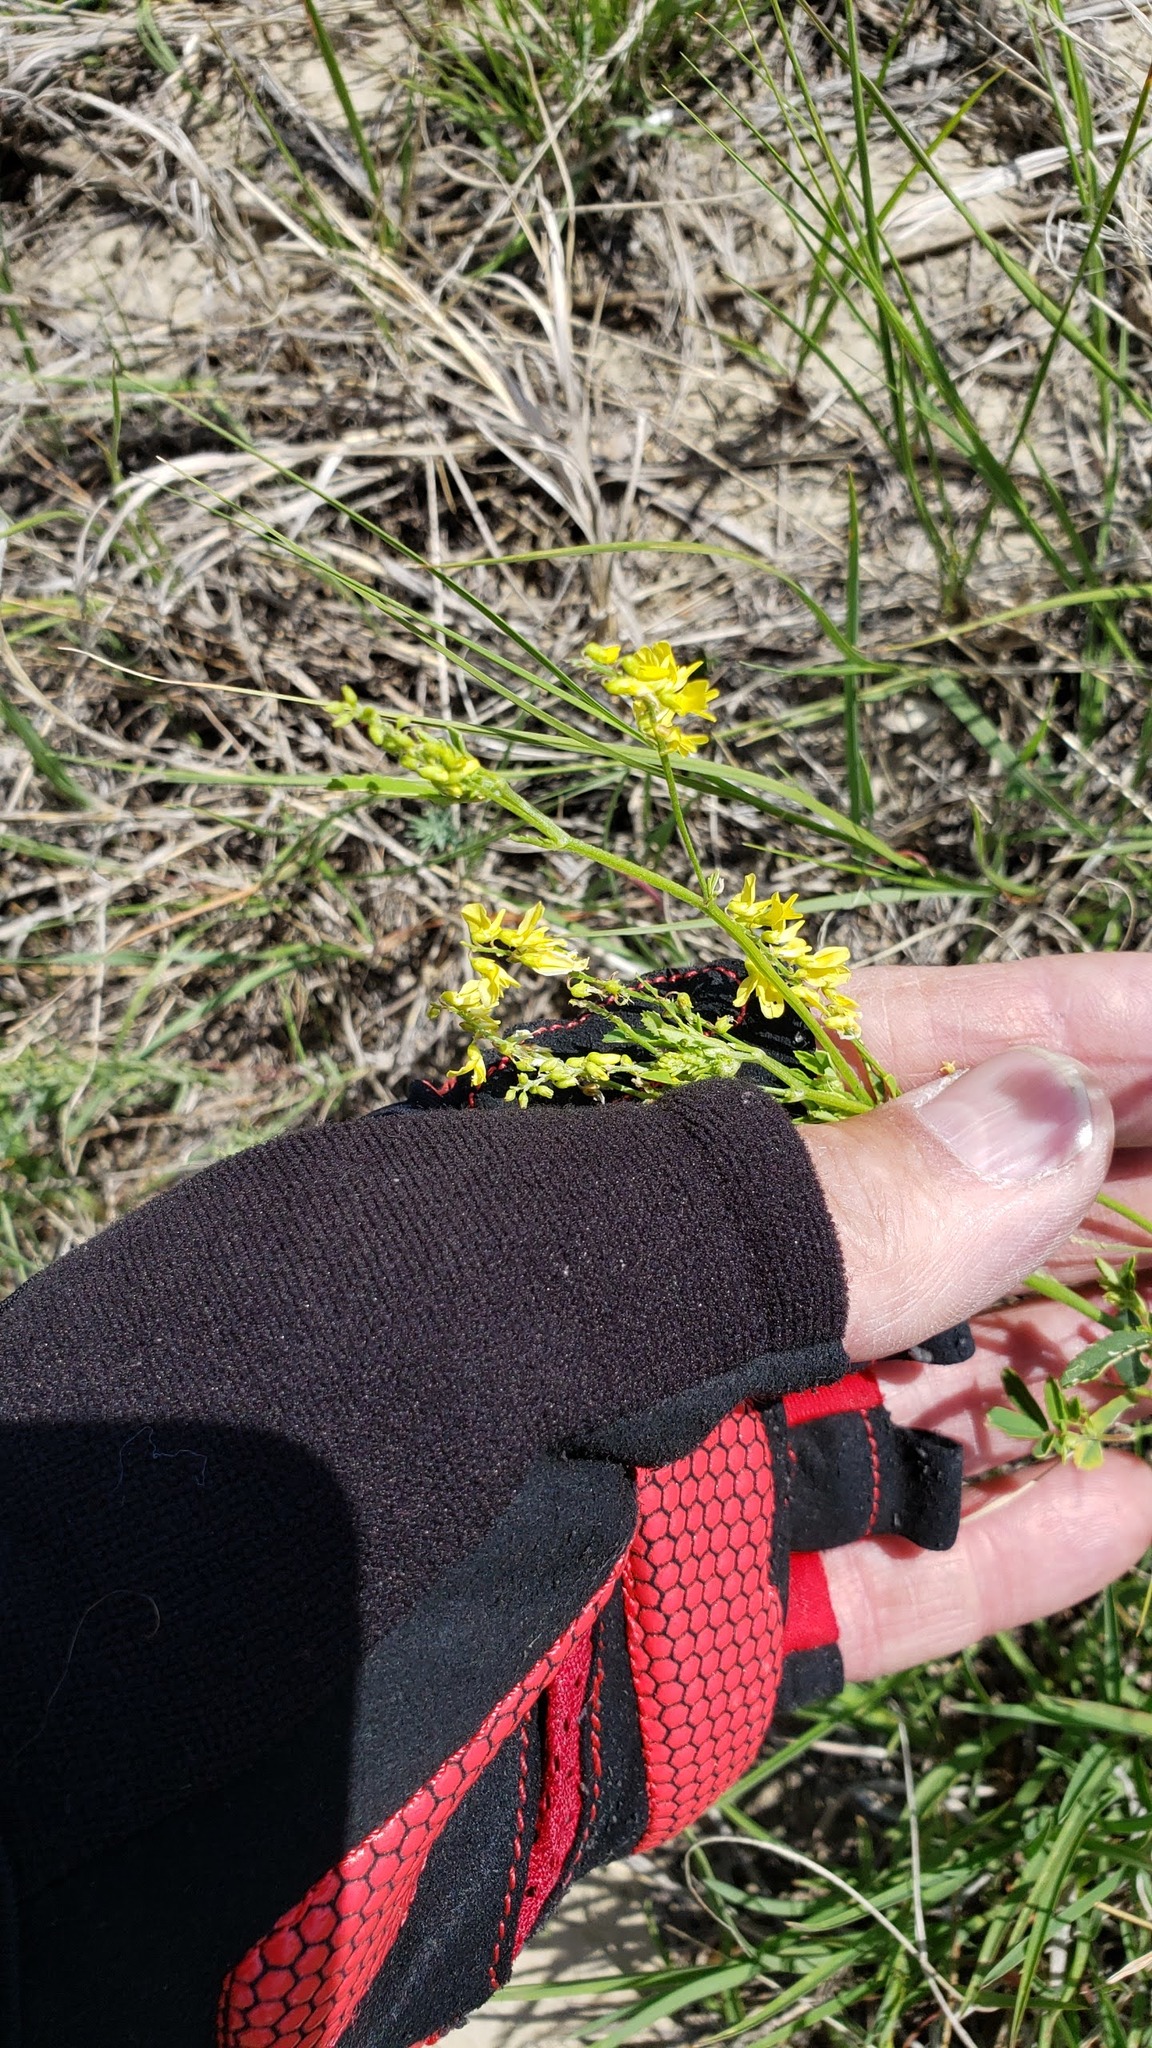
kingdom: Plantae
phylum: Tracheophyta
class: Magnoliopsida
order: Fabales
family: Fabaceae
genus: Melilotus
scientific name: Melilotus officinalis
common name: Sweetclover
